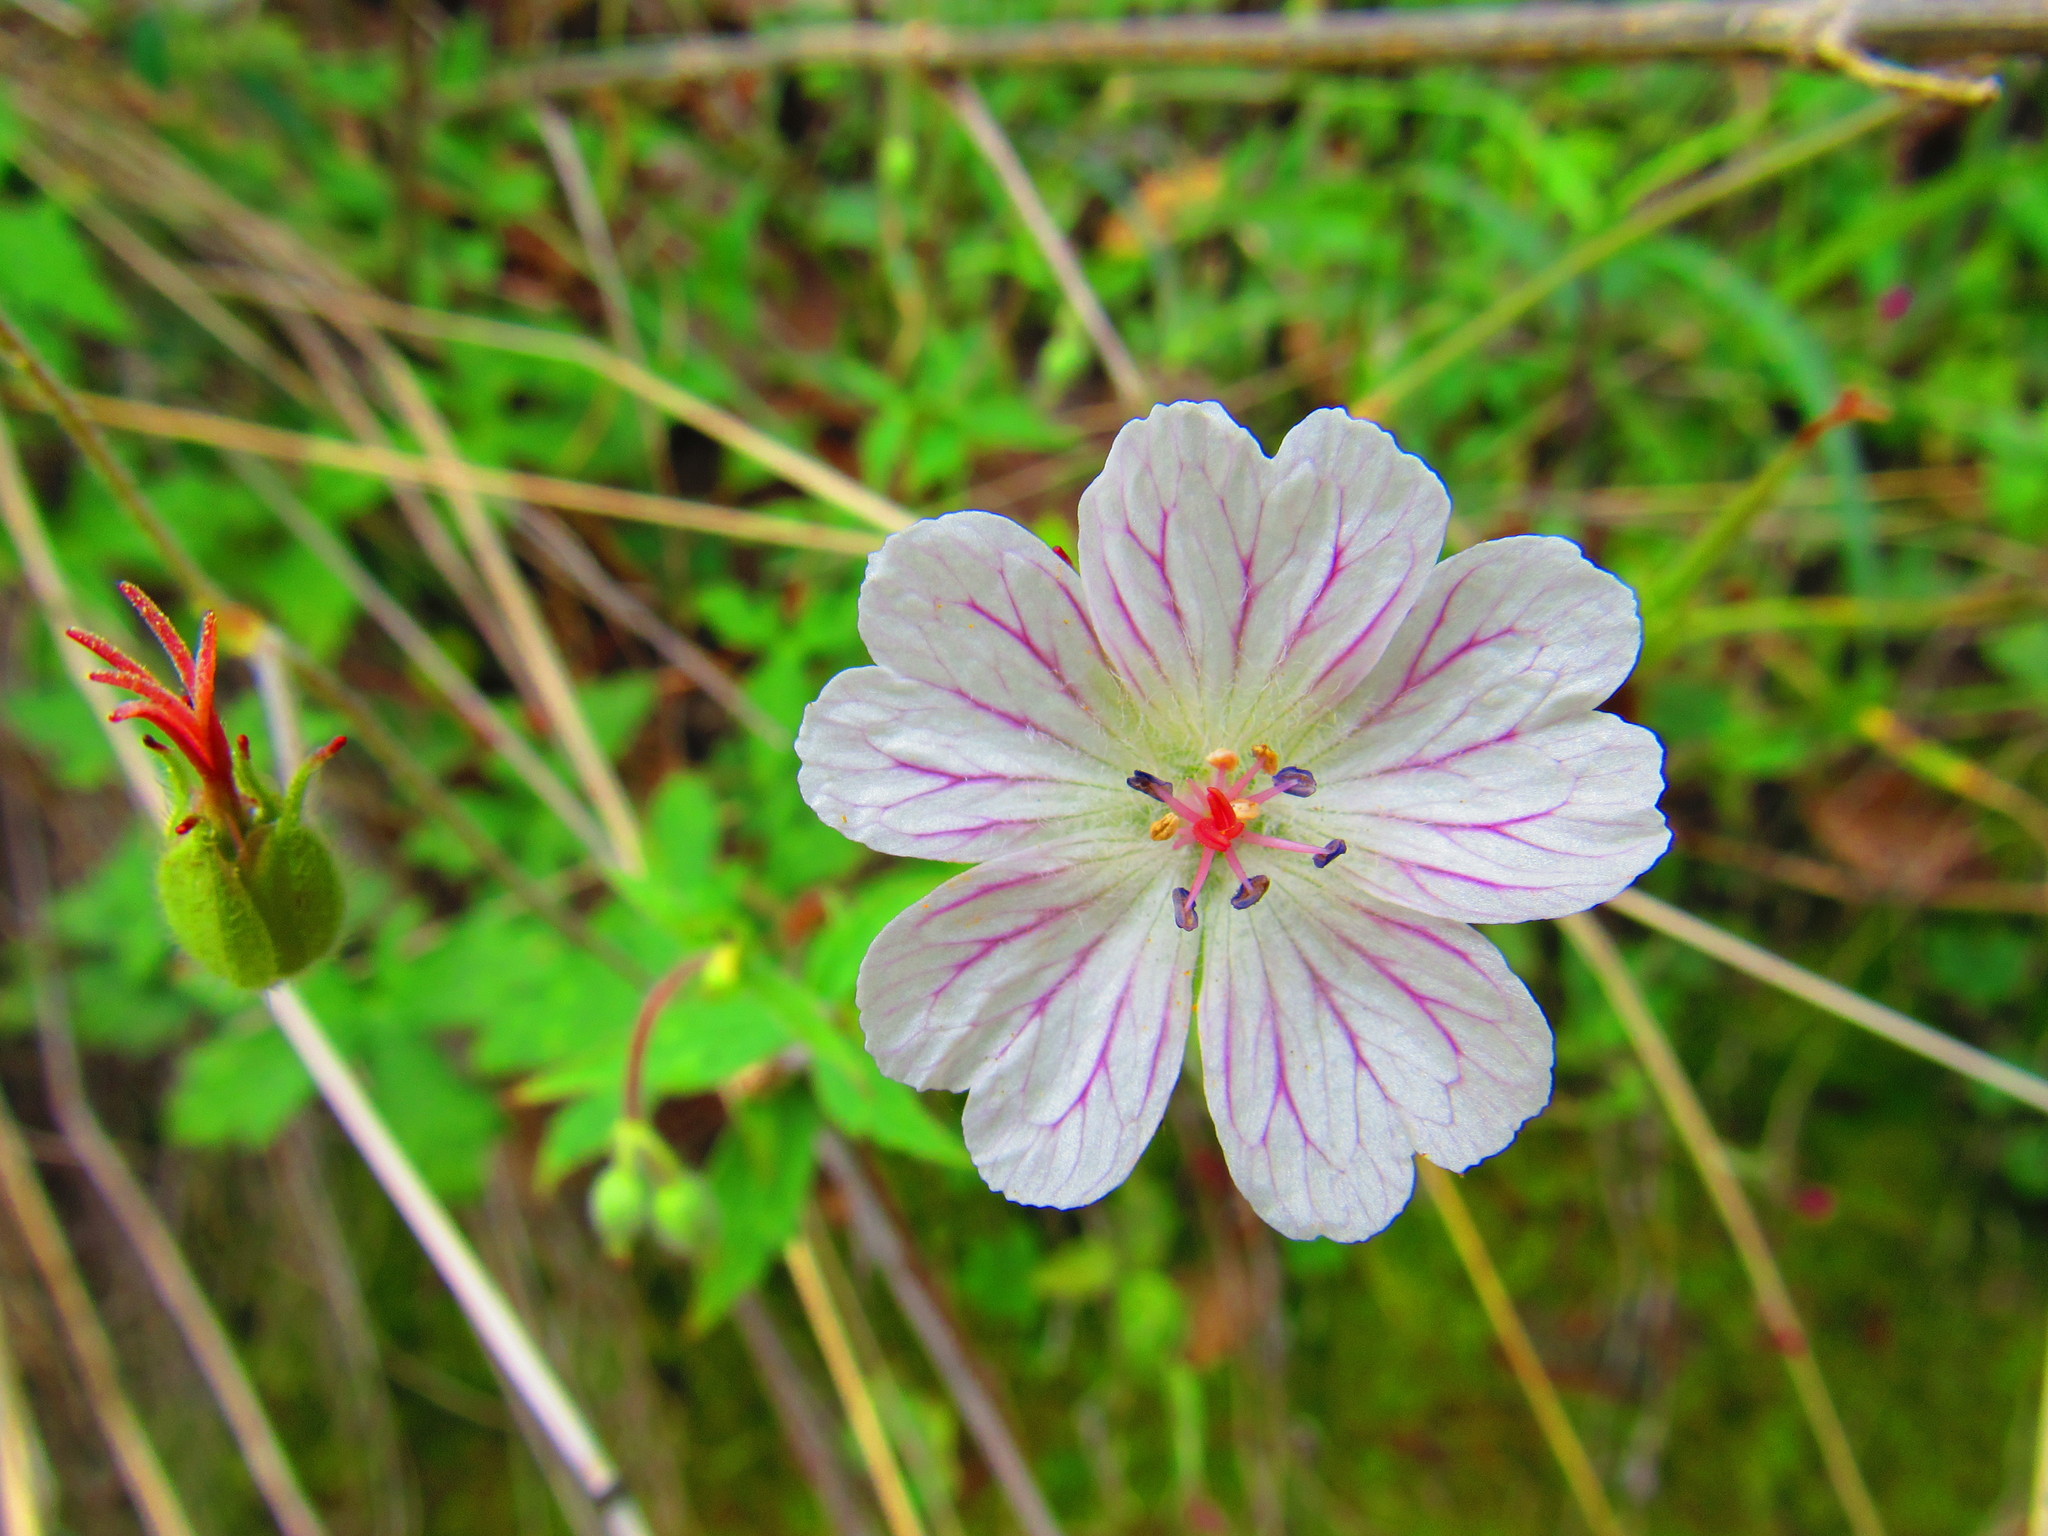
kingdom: Plantae
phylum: Tracheophyta
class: Magnoliopsida
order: Geraniales
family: Geraniaceae
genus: Geranium
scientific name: Geranium deltoideum
